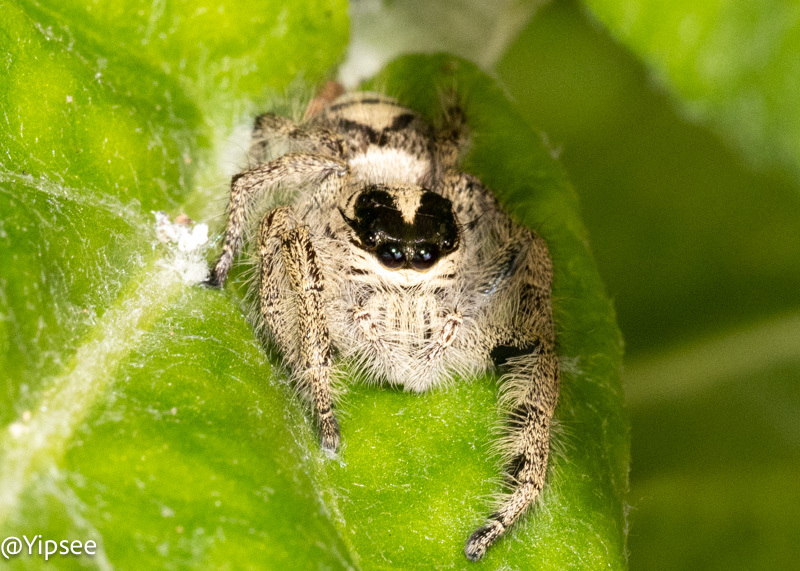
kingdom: Animalia
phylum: Arthropoda
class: Arachnida
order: Araneae
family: Salticidae
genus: Hyllus
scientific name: Hyllus diardi
